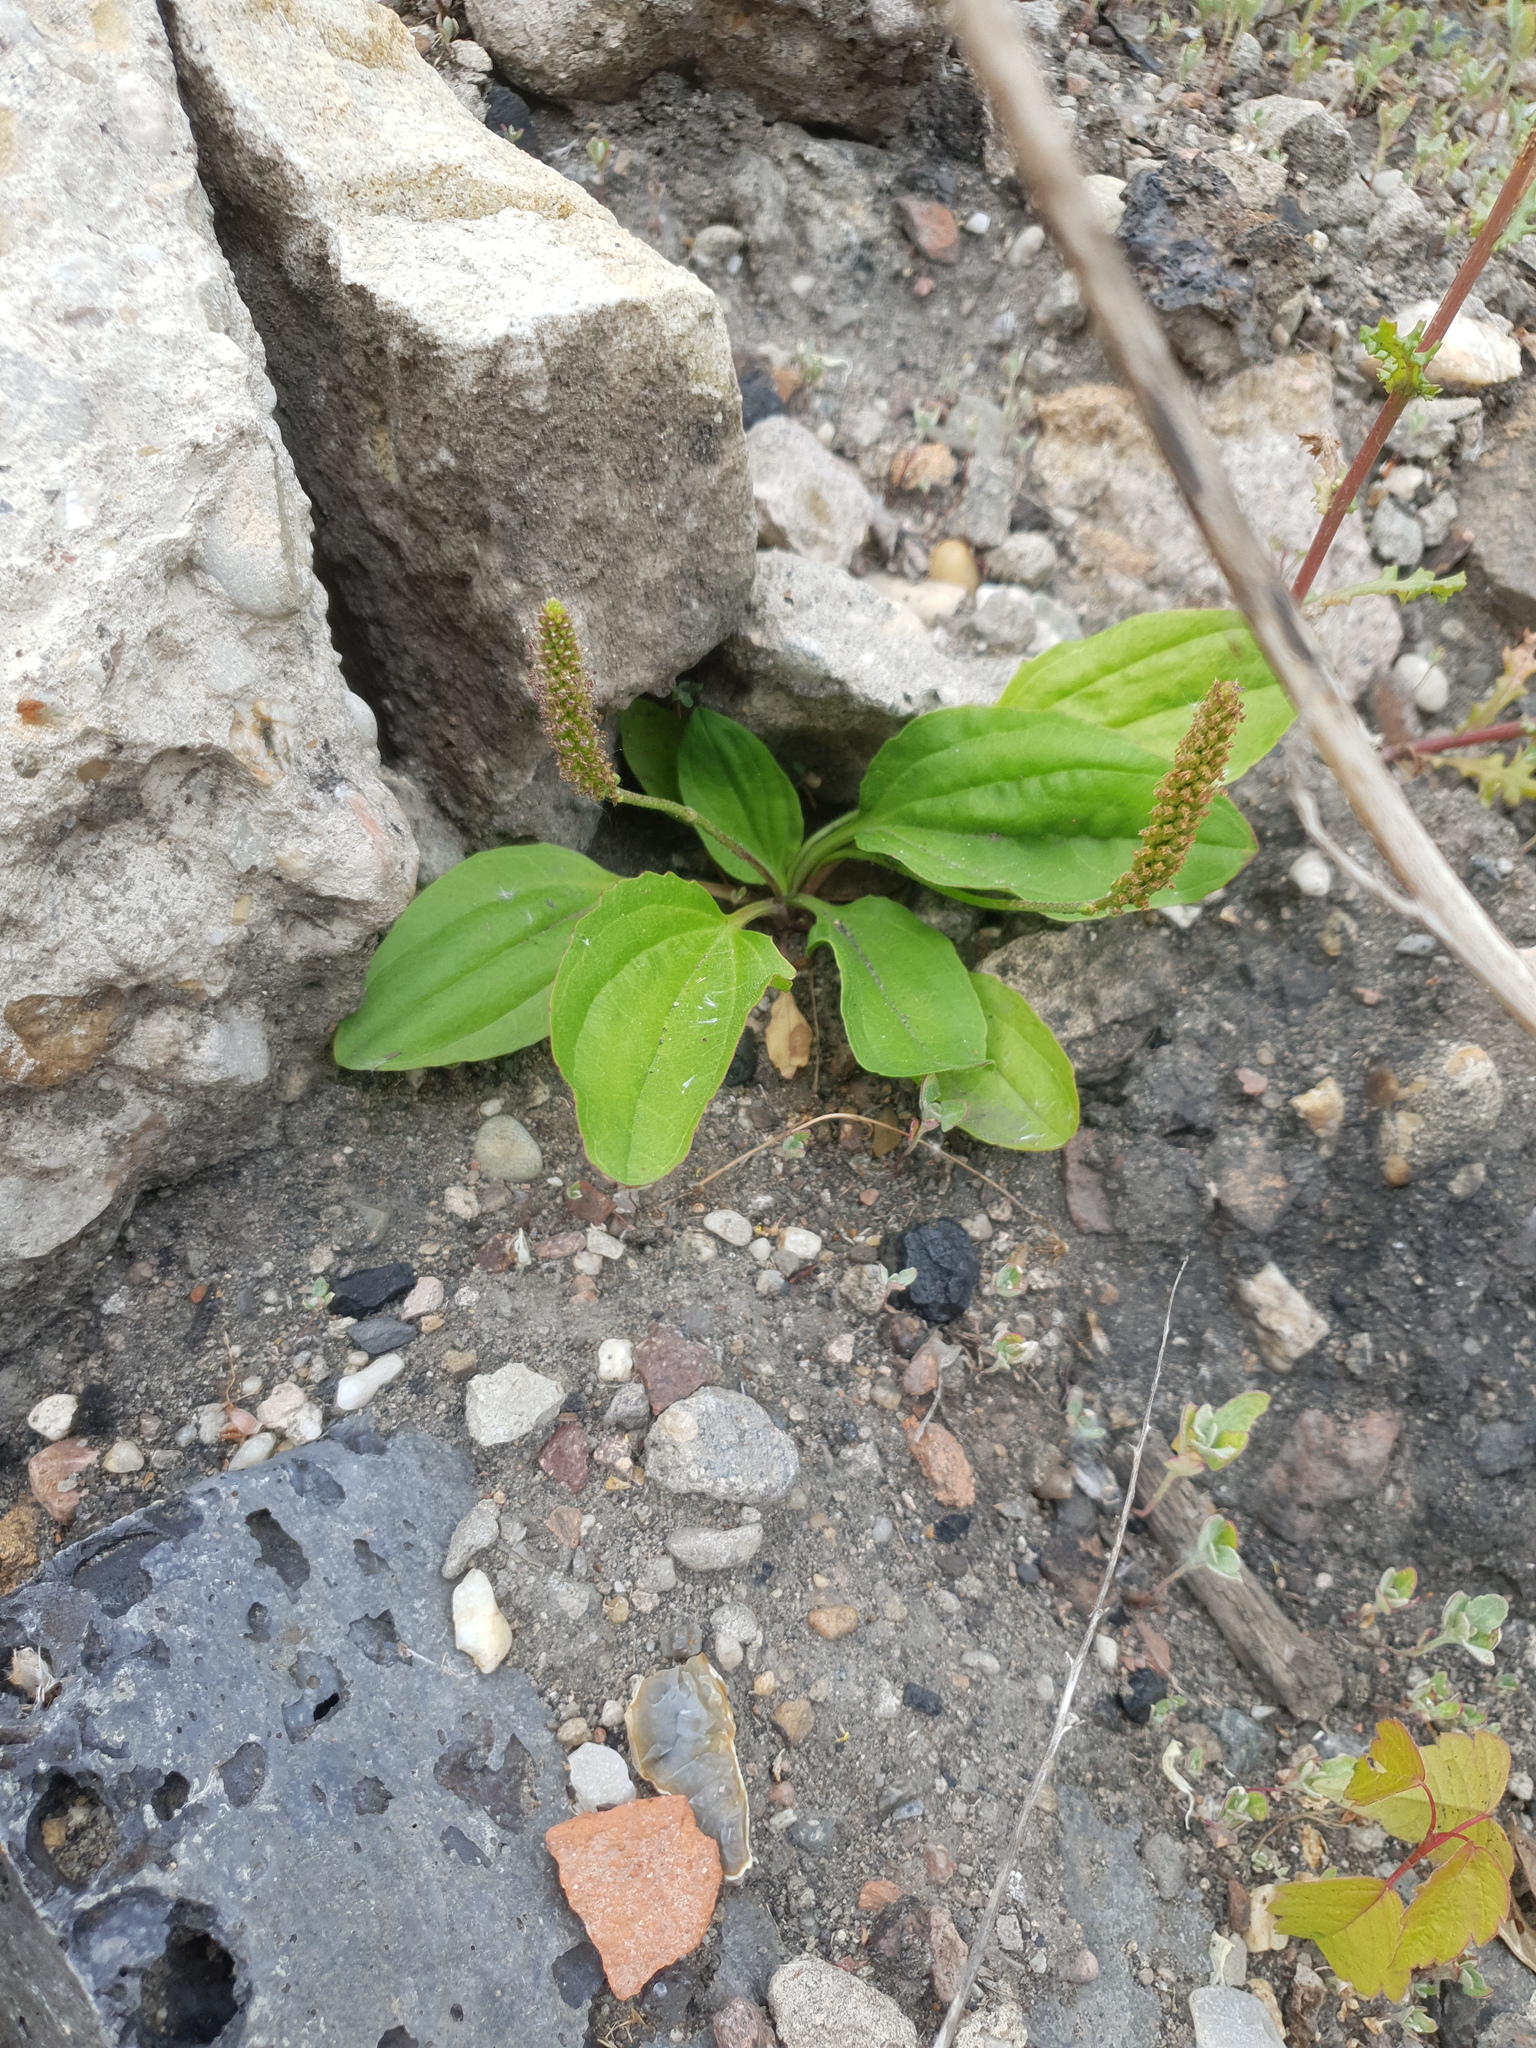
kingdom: Plantae
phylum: Tracheophyta
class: Magnoliopsida
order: Lamiales
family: Plantaginaceae
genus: Plantago
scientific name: Plantago major
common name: Common plantain
